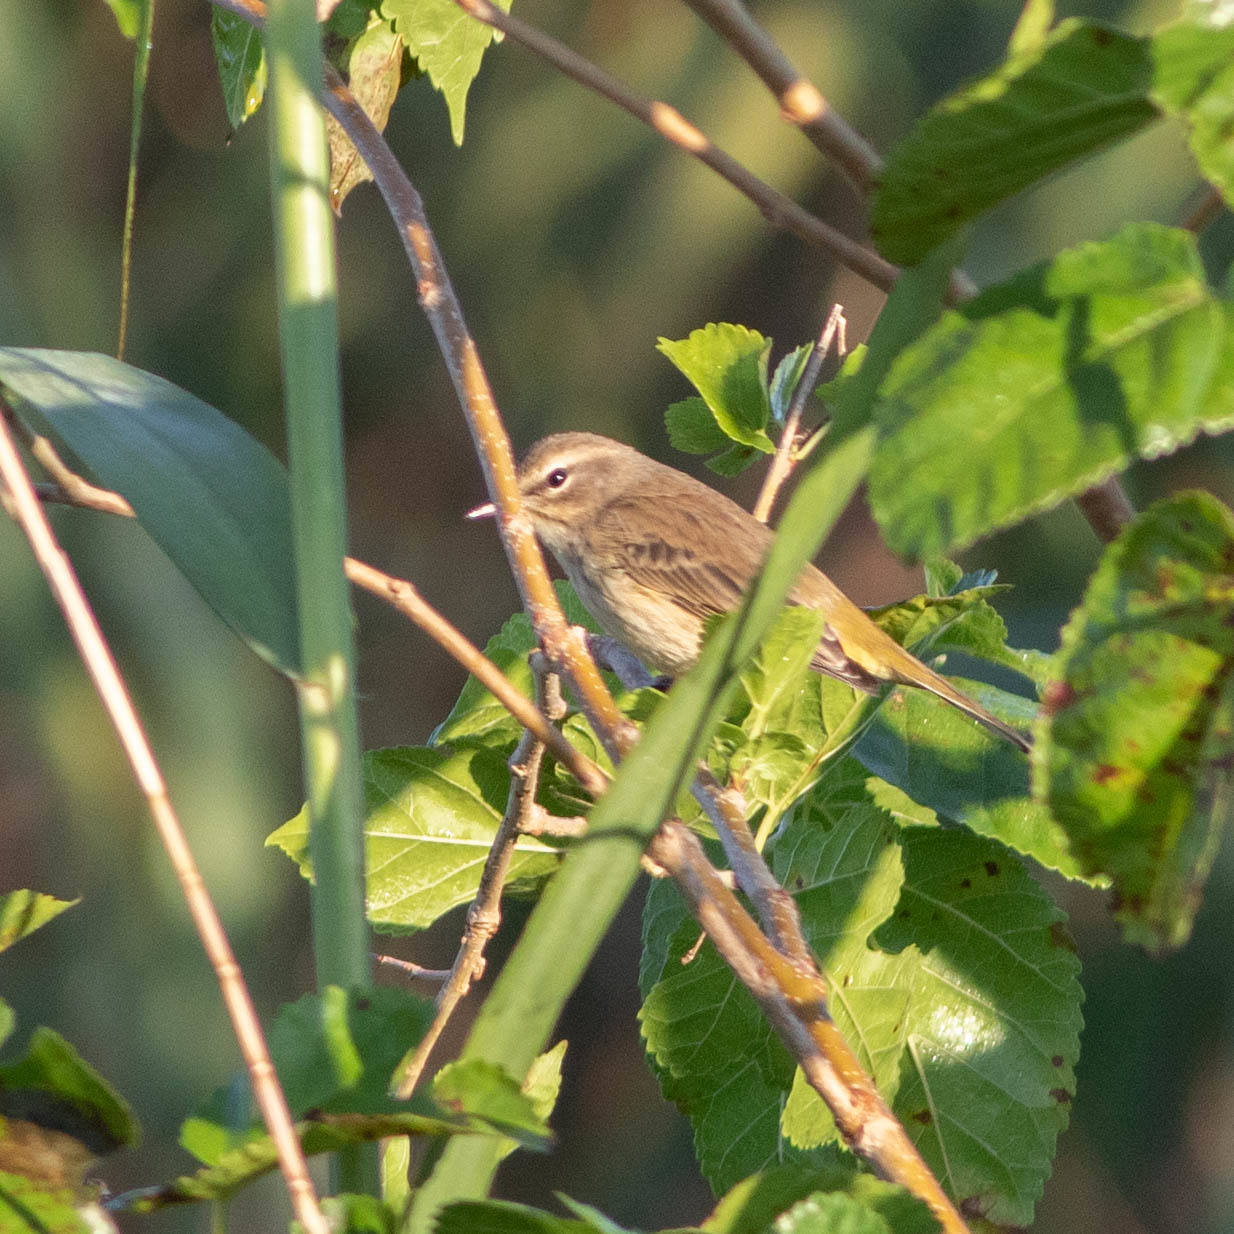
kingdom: Animalia
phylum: Chordata
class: Aves
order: Passeriformes
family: Parulidae
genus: Setophaga
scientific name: Setophaga palmarum
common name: Palm warbler
